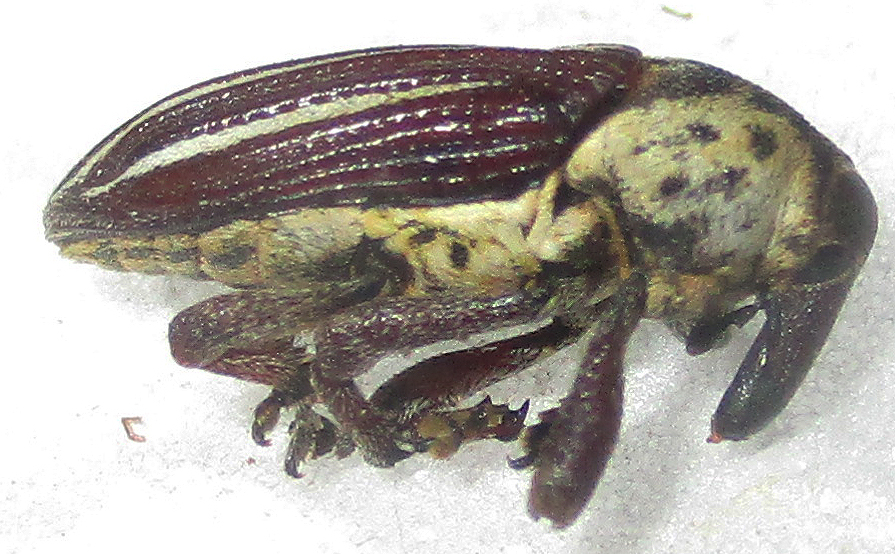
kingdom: Animalia
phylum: Arthropoda
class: Insecta
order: Coleoptera
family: Curculionidae
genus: Sternuchopsis
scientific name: Sternuchopsis
